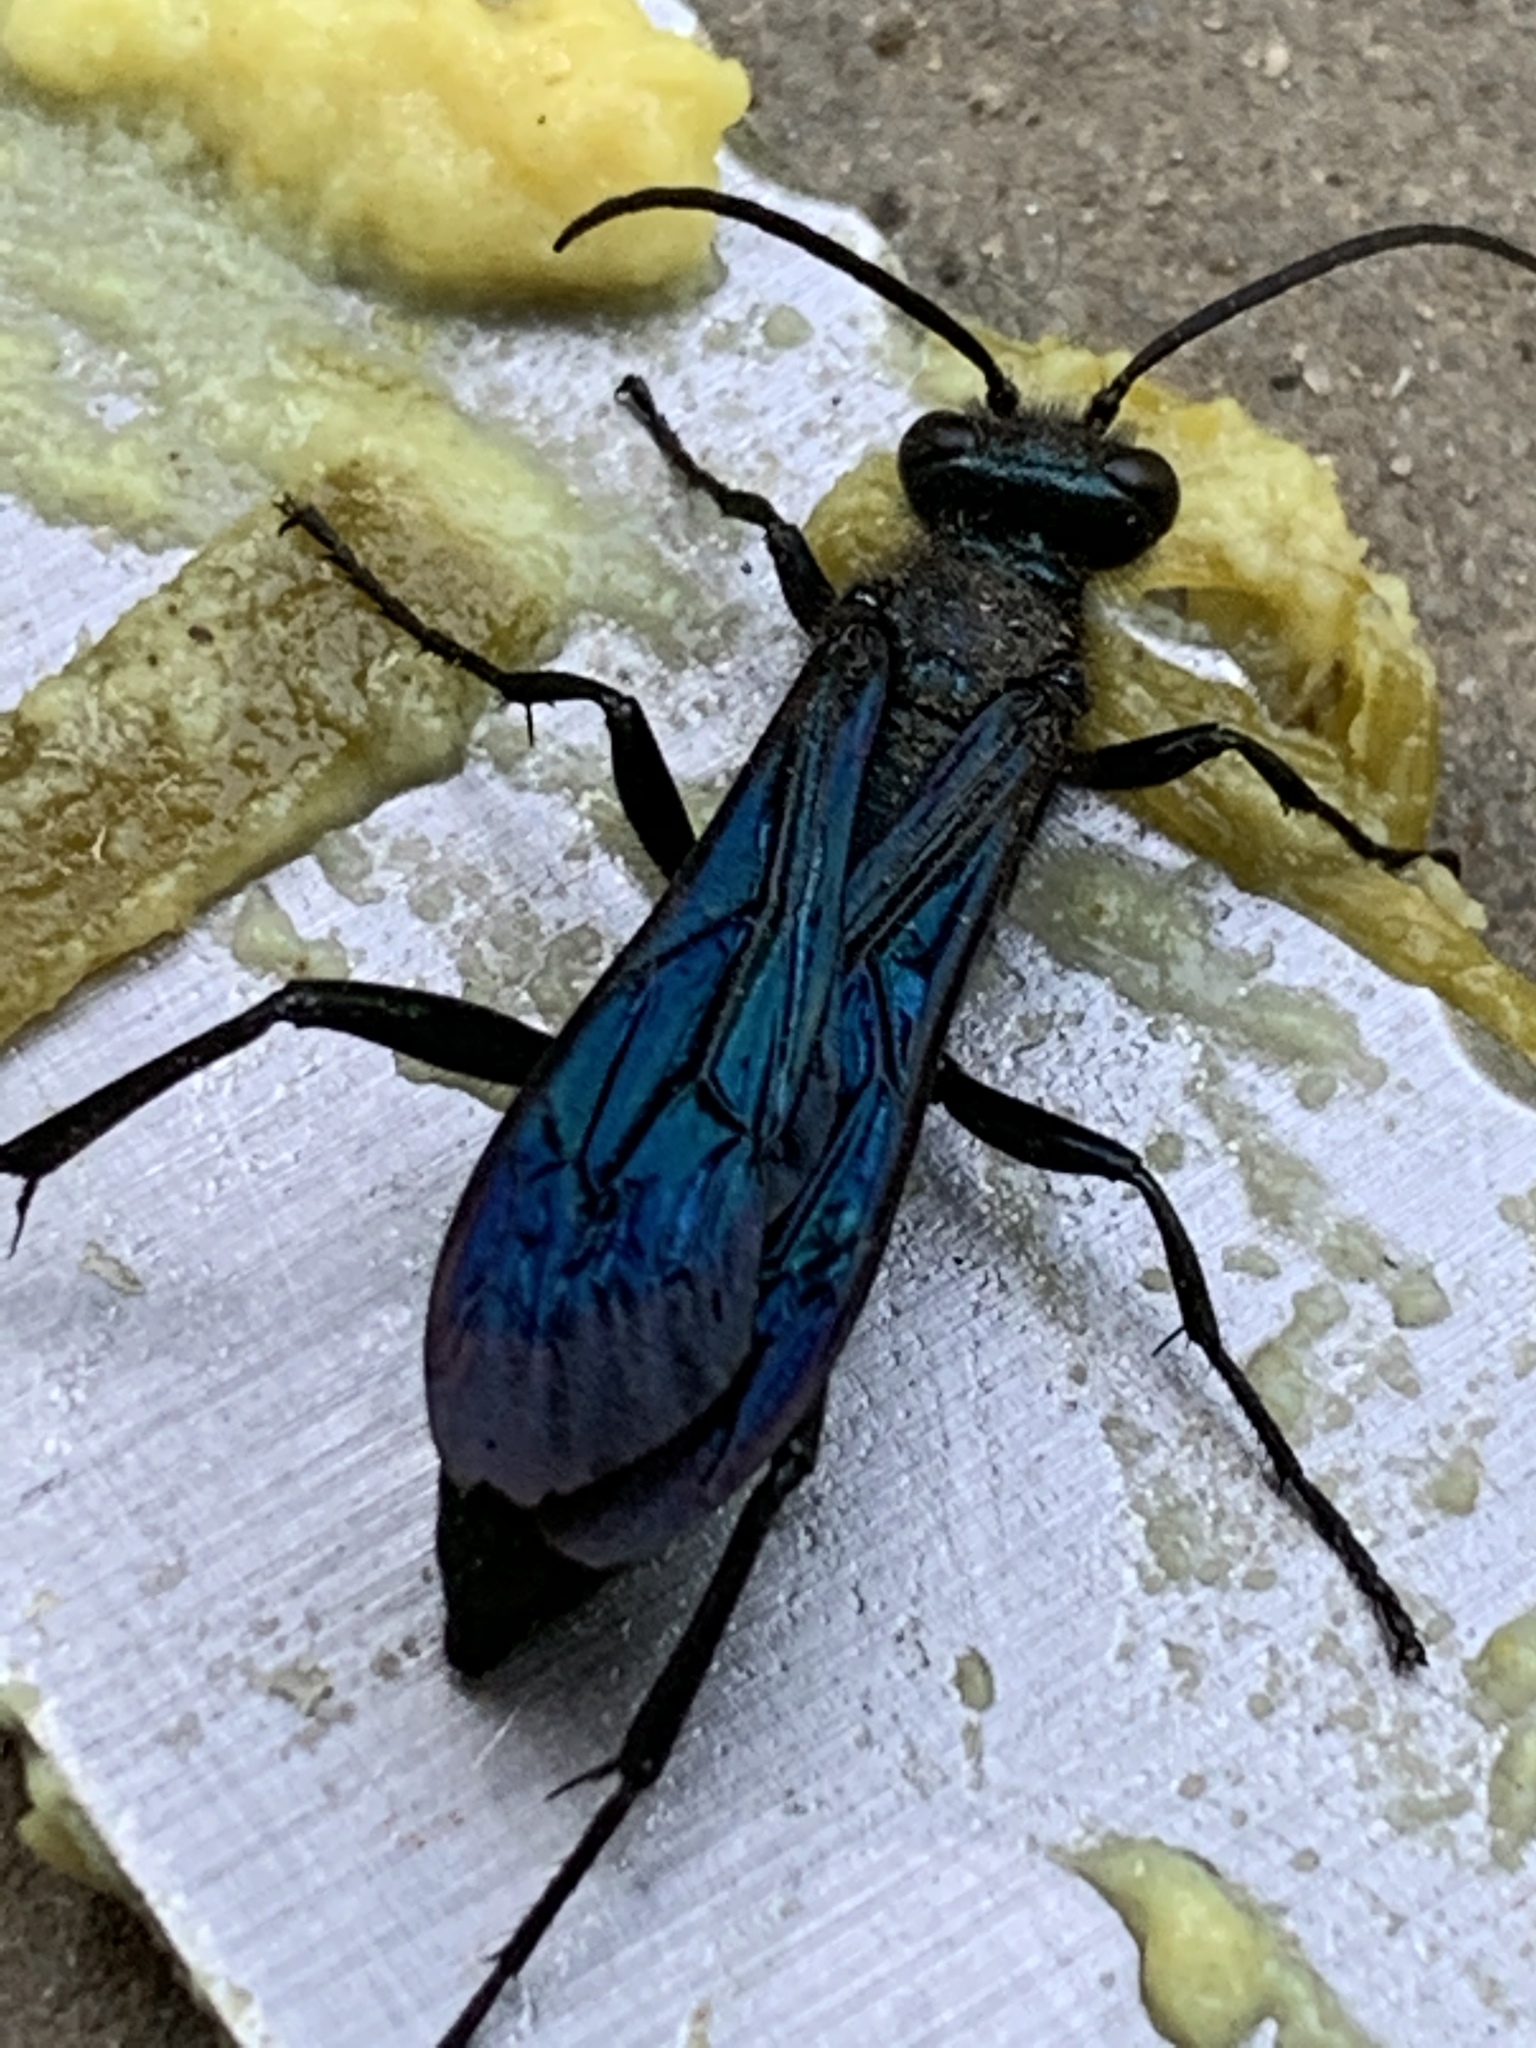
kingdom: Animalia
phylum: Arthropoda
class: Insecta
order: Hymenoptera
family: Sphecidae
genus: Chalybion
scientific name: Chalybion californicum
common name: Mud dauber
